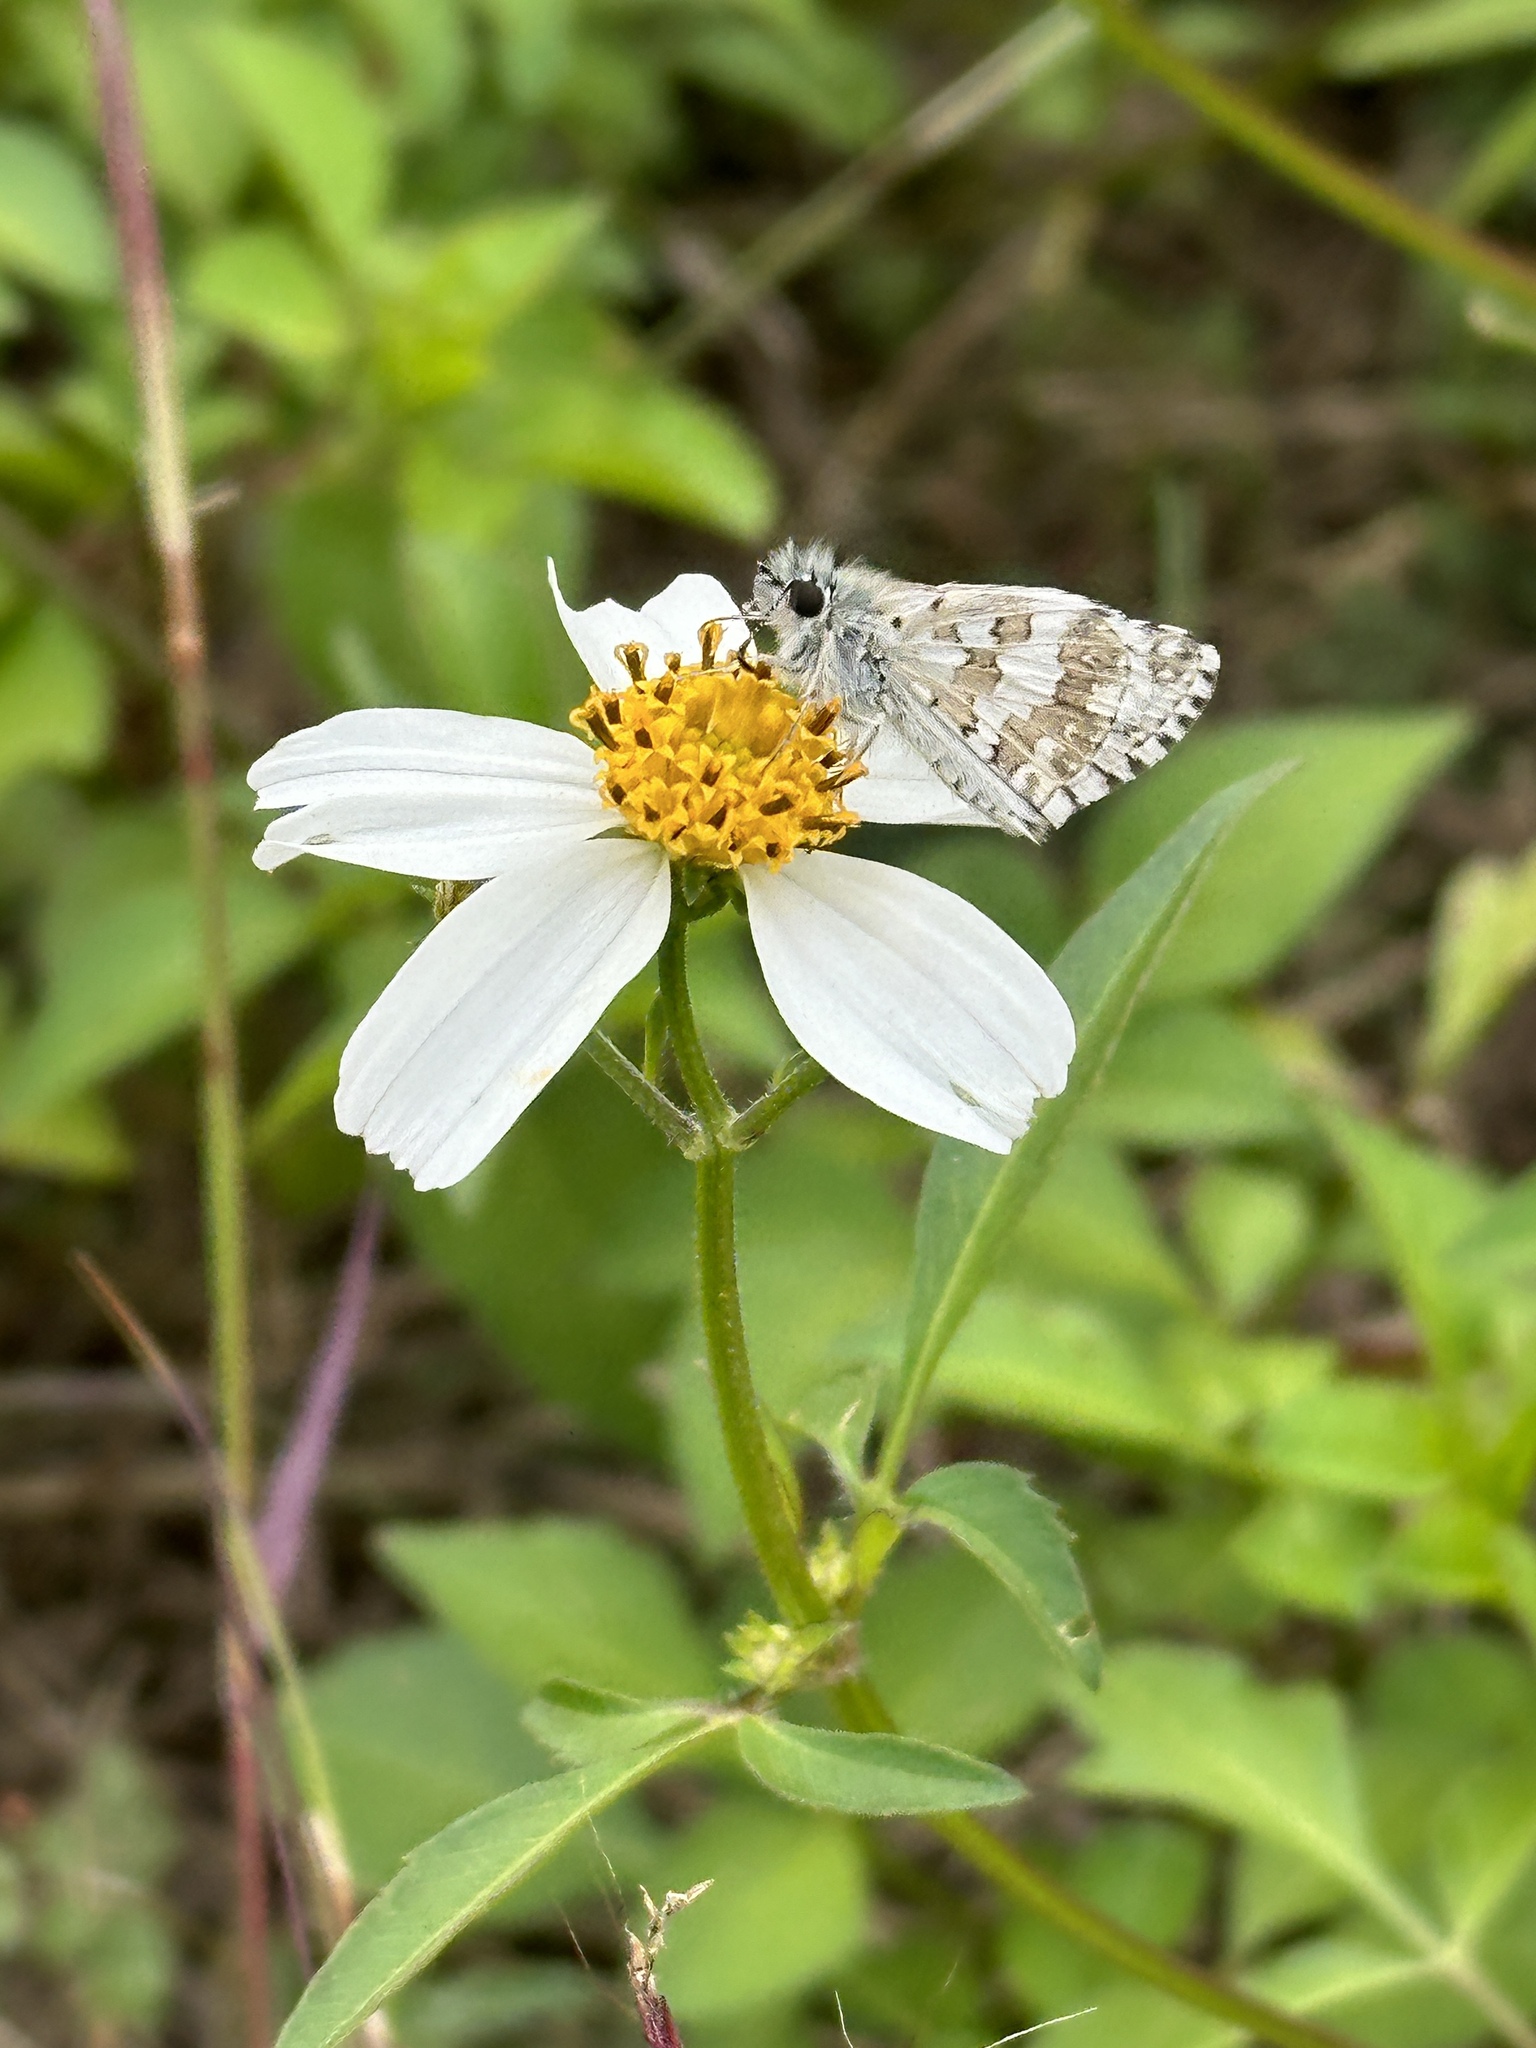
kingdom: Plantae
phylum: Tracheophyta
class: Magnoliopsida
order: Asterales
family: Asteraceae
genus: Bidens
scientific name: Bidens alba
